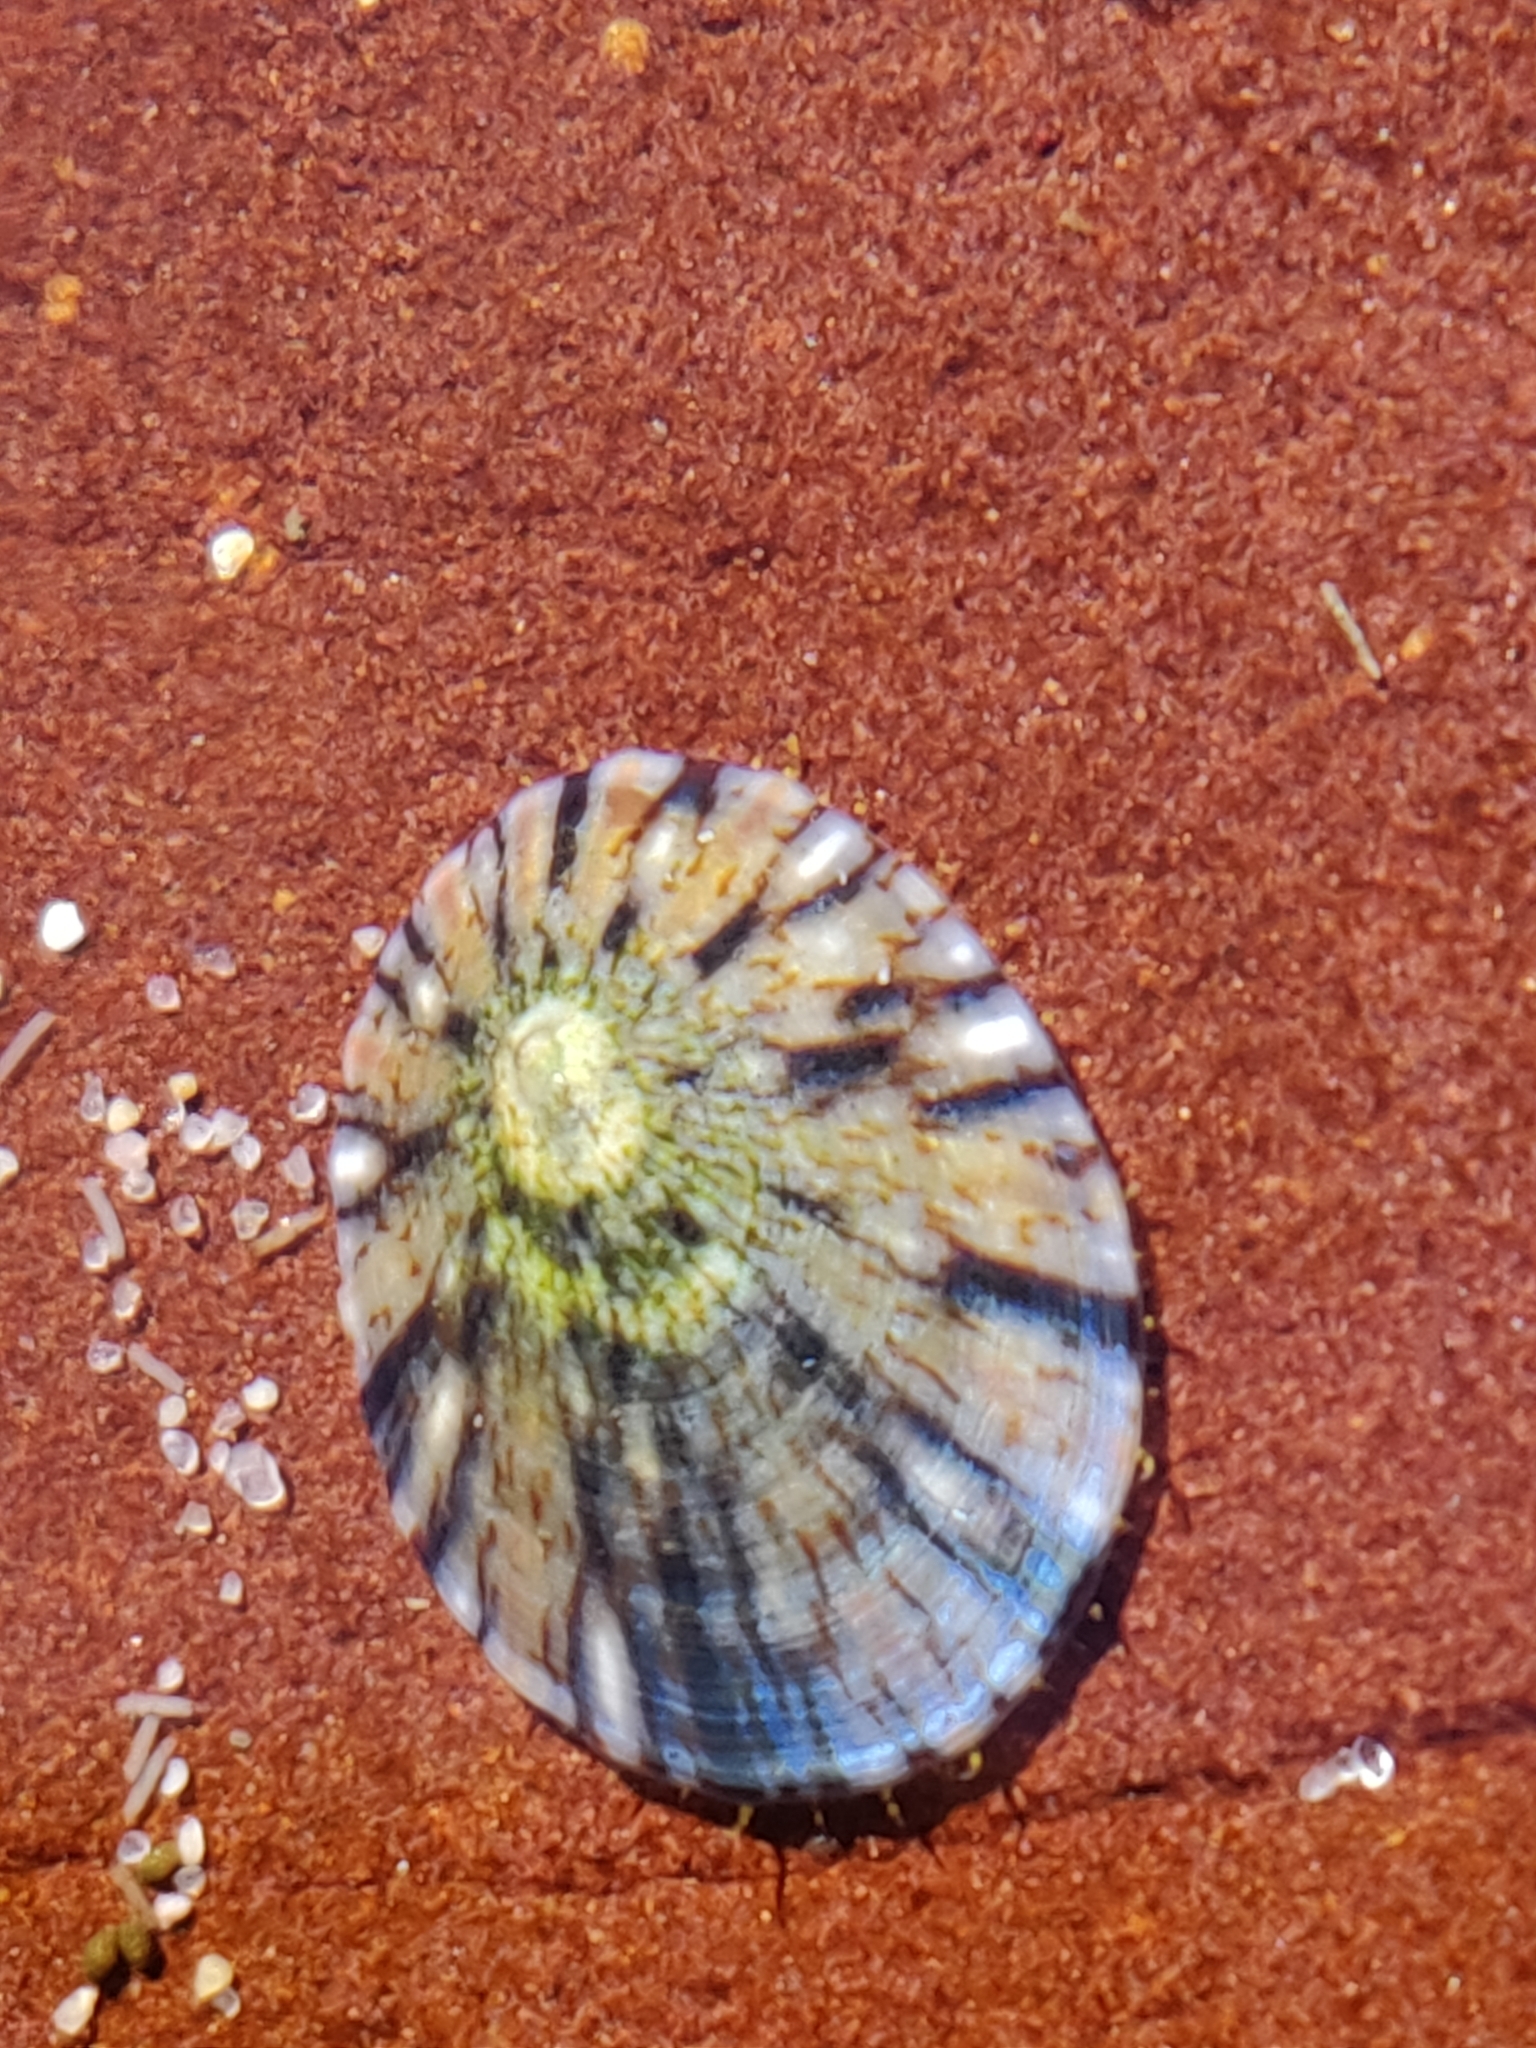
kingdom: Animalia
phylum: Mollusca
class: Gastropoda
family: Nacellidae
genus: Cellana
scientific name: Cellana tramoserica
